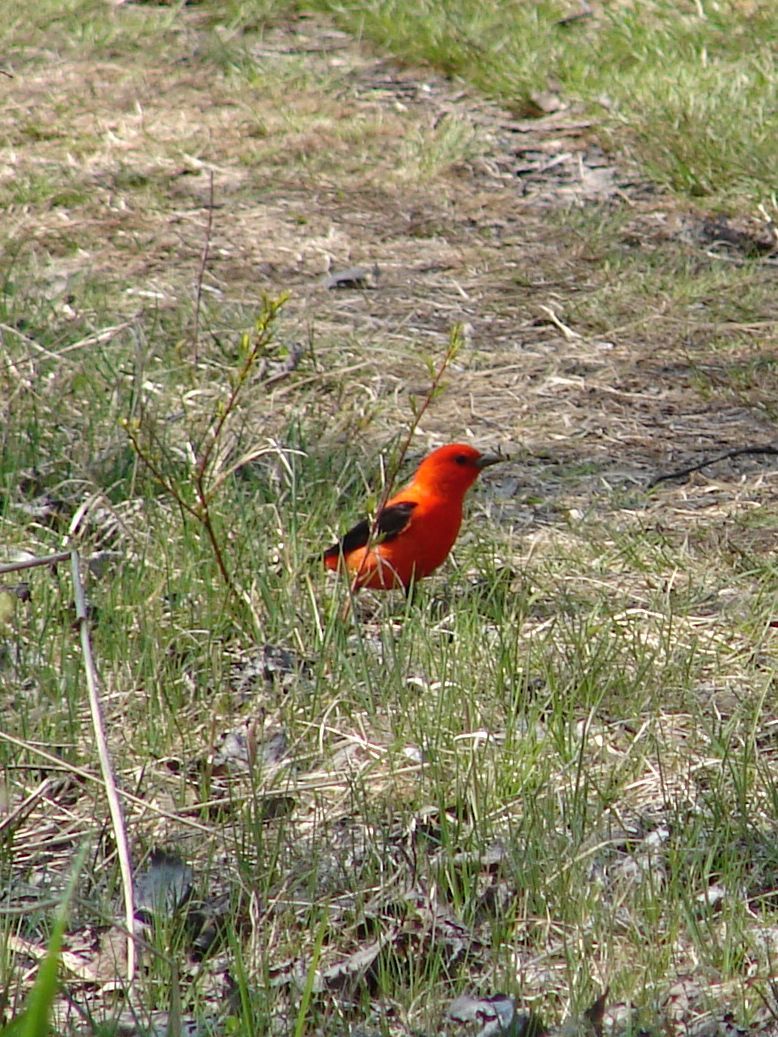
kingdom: Animalia
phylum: Chordata
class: Aves
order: Passeriformes
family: Cardinalidae
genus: Piranga
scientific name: Piranga olivacea
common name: Scarlet tanager
